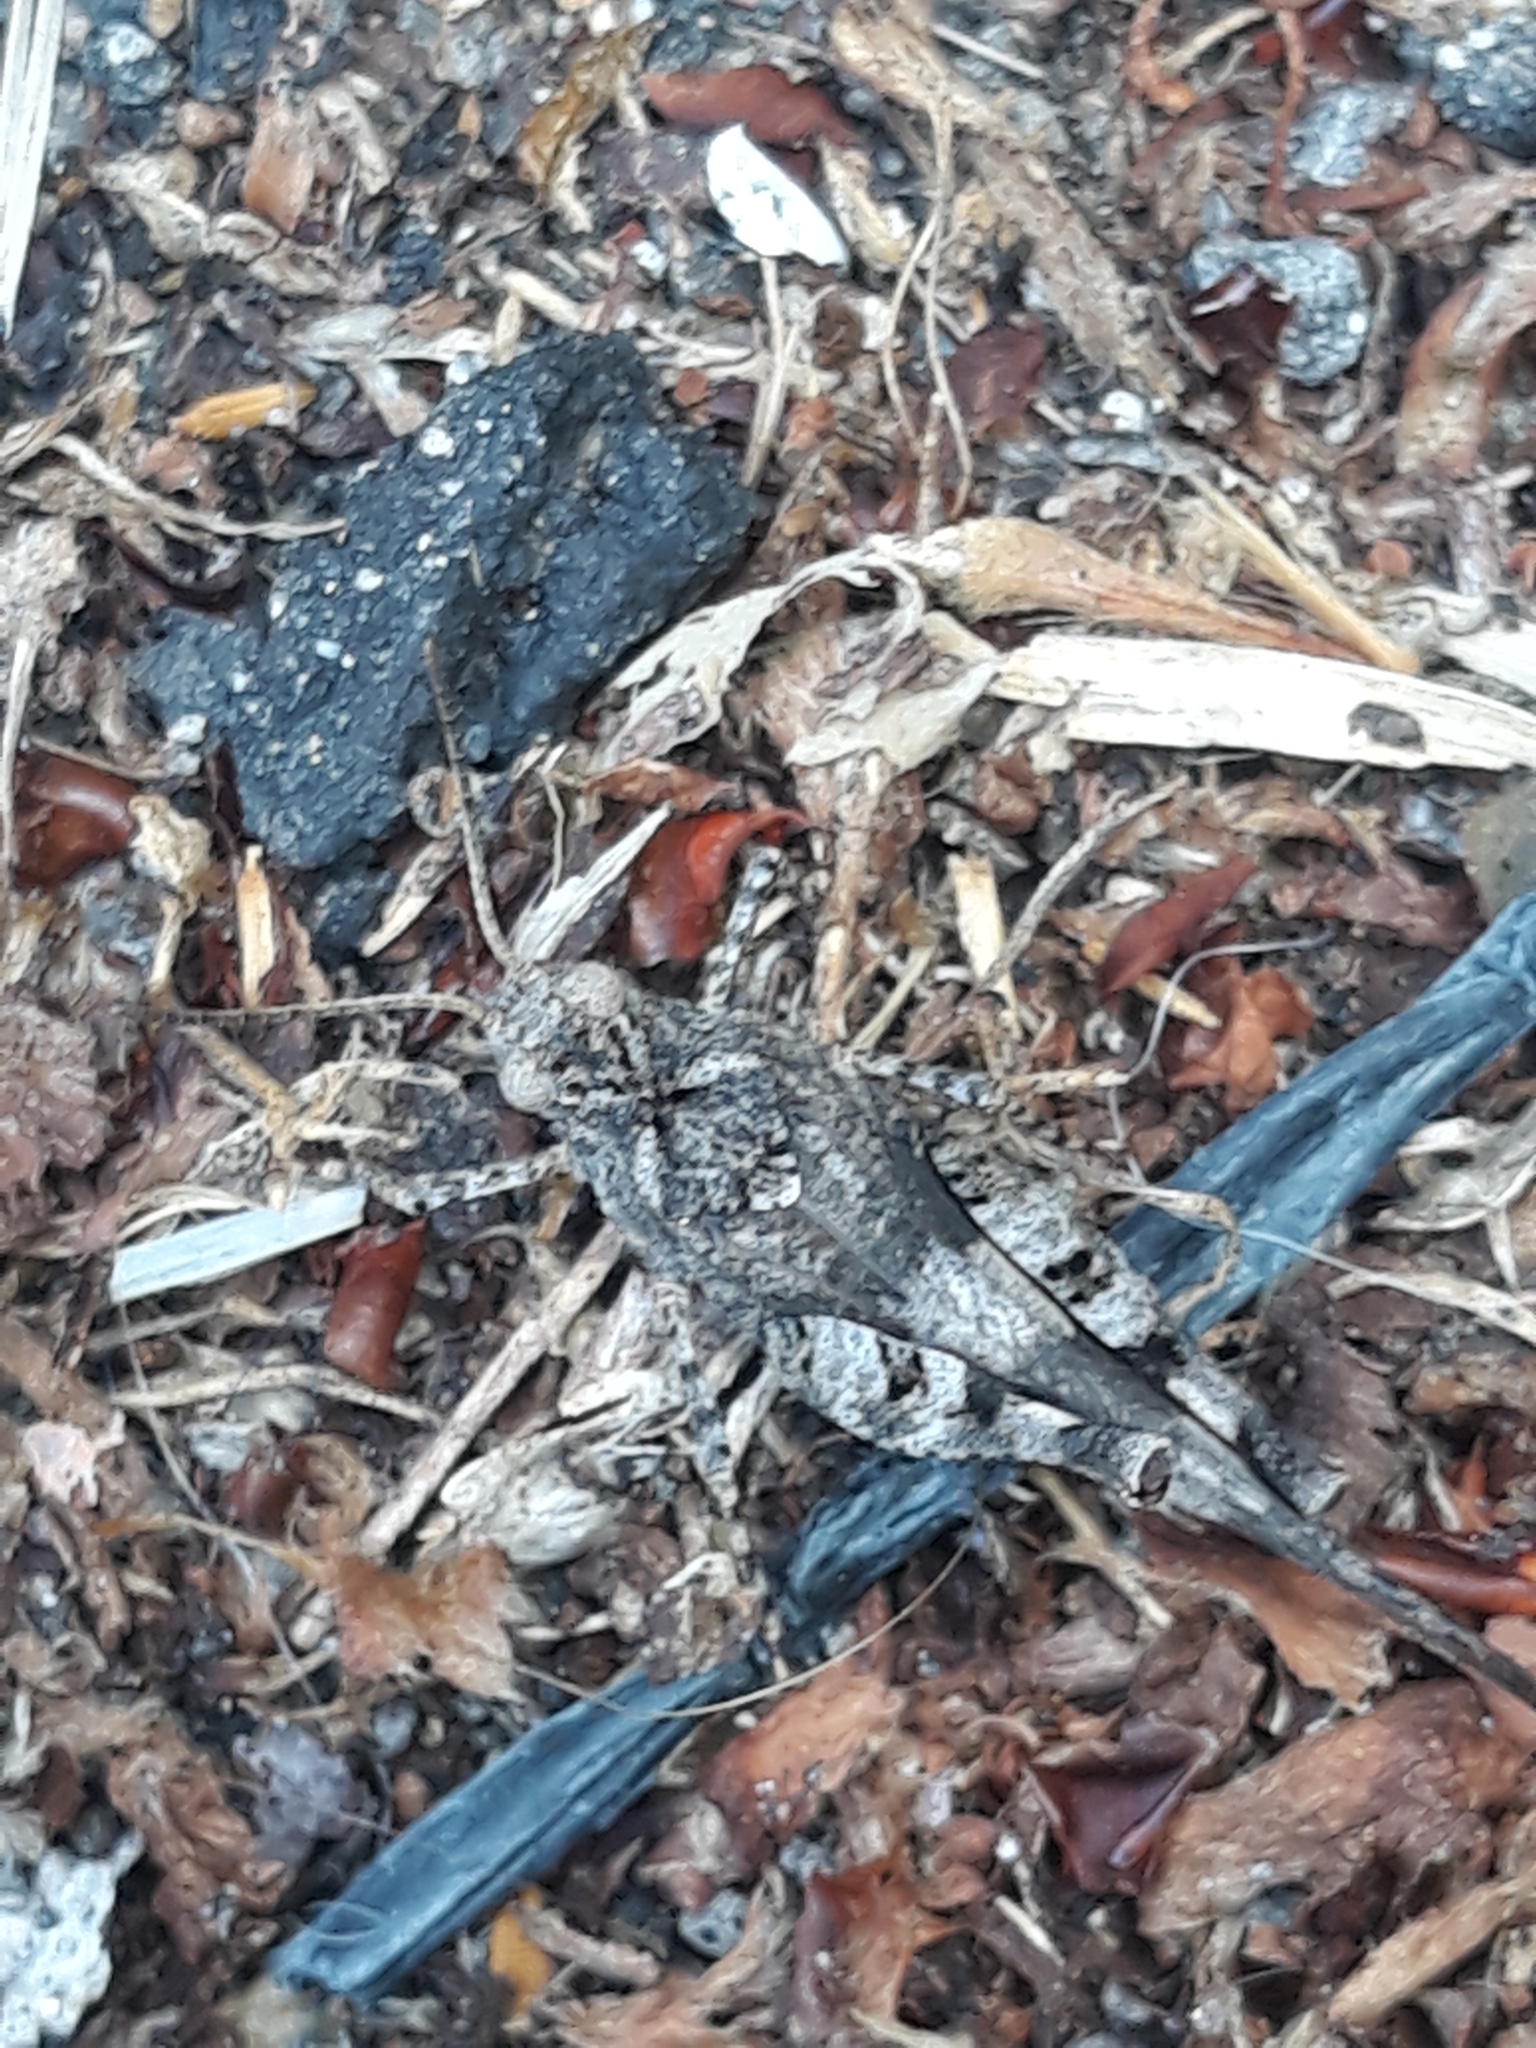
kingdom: Animalia
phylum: Arthropoda
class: Insecta
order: Orthoptera
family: Acrididae
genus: Oedipoda
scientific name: Oedipoda caerulescens
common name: Blue-winged grasshopper
